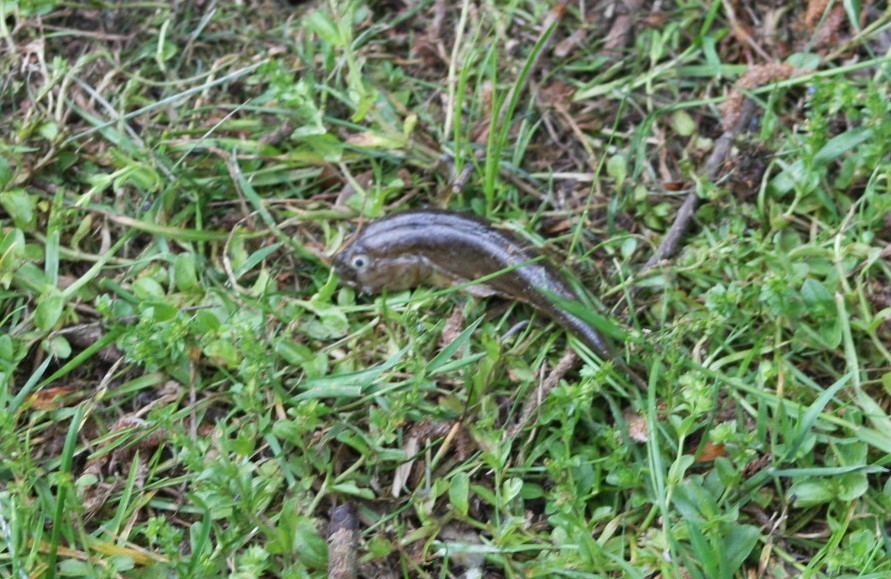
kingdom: Animalia
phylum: Chordata
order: Perciformes
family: Gobiidae
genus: Neogobius
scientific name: Neogobius melanostomus
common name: Round goby
